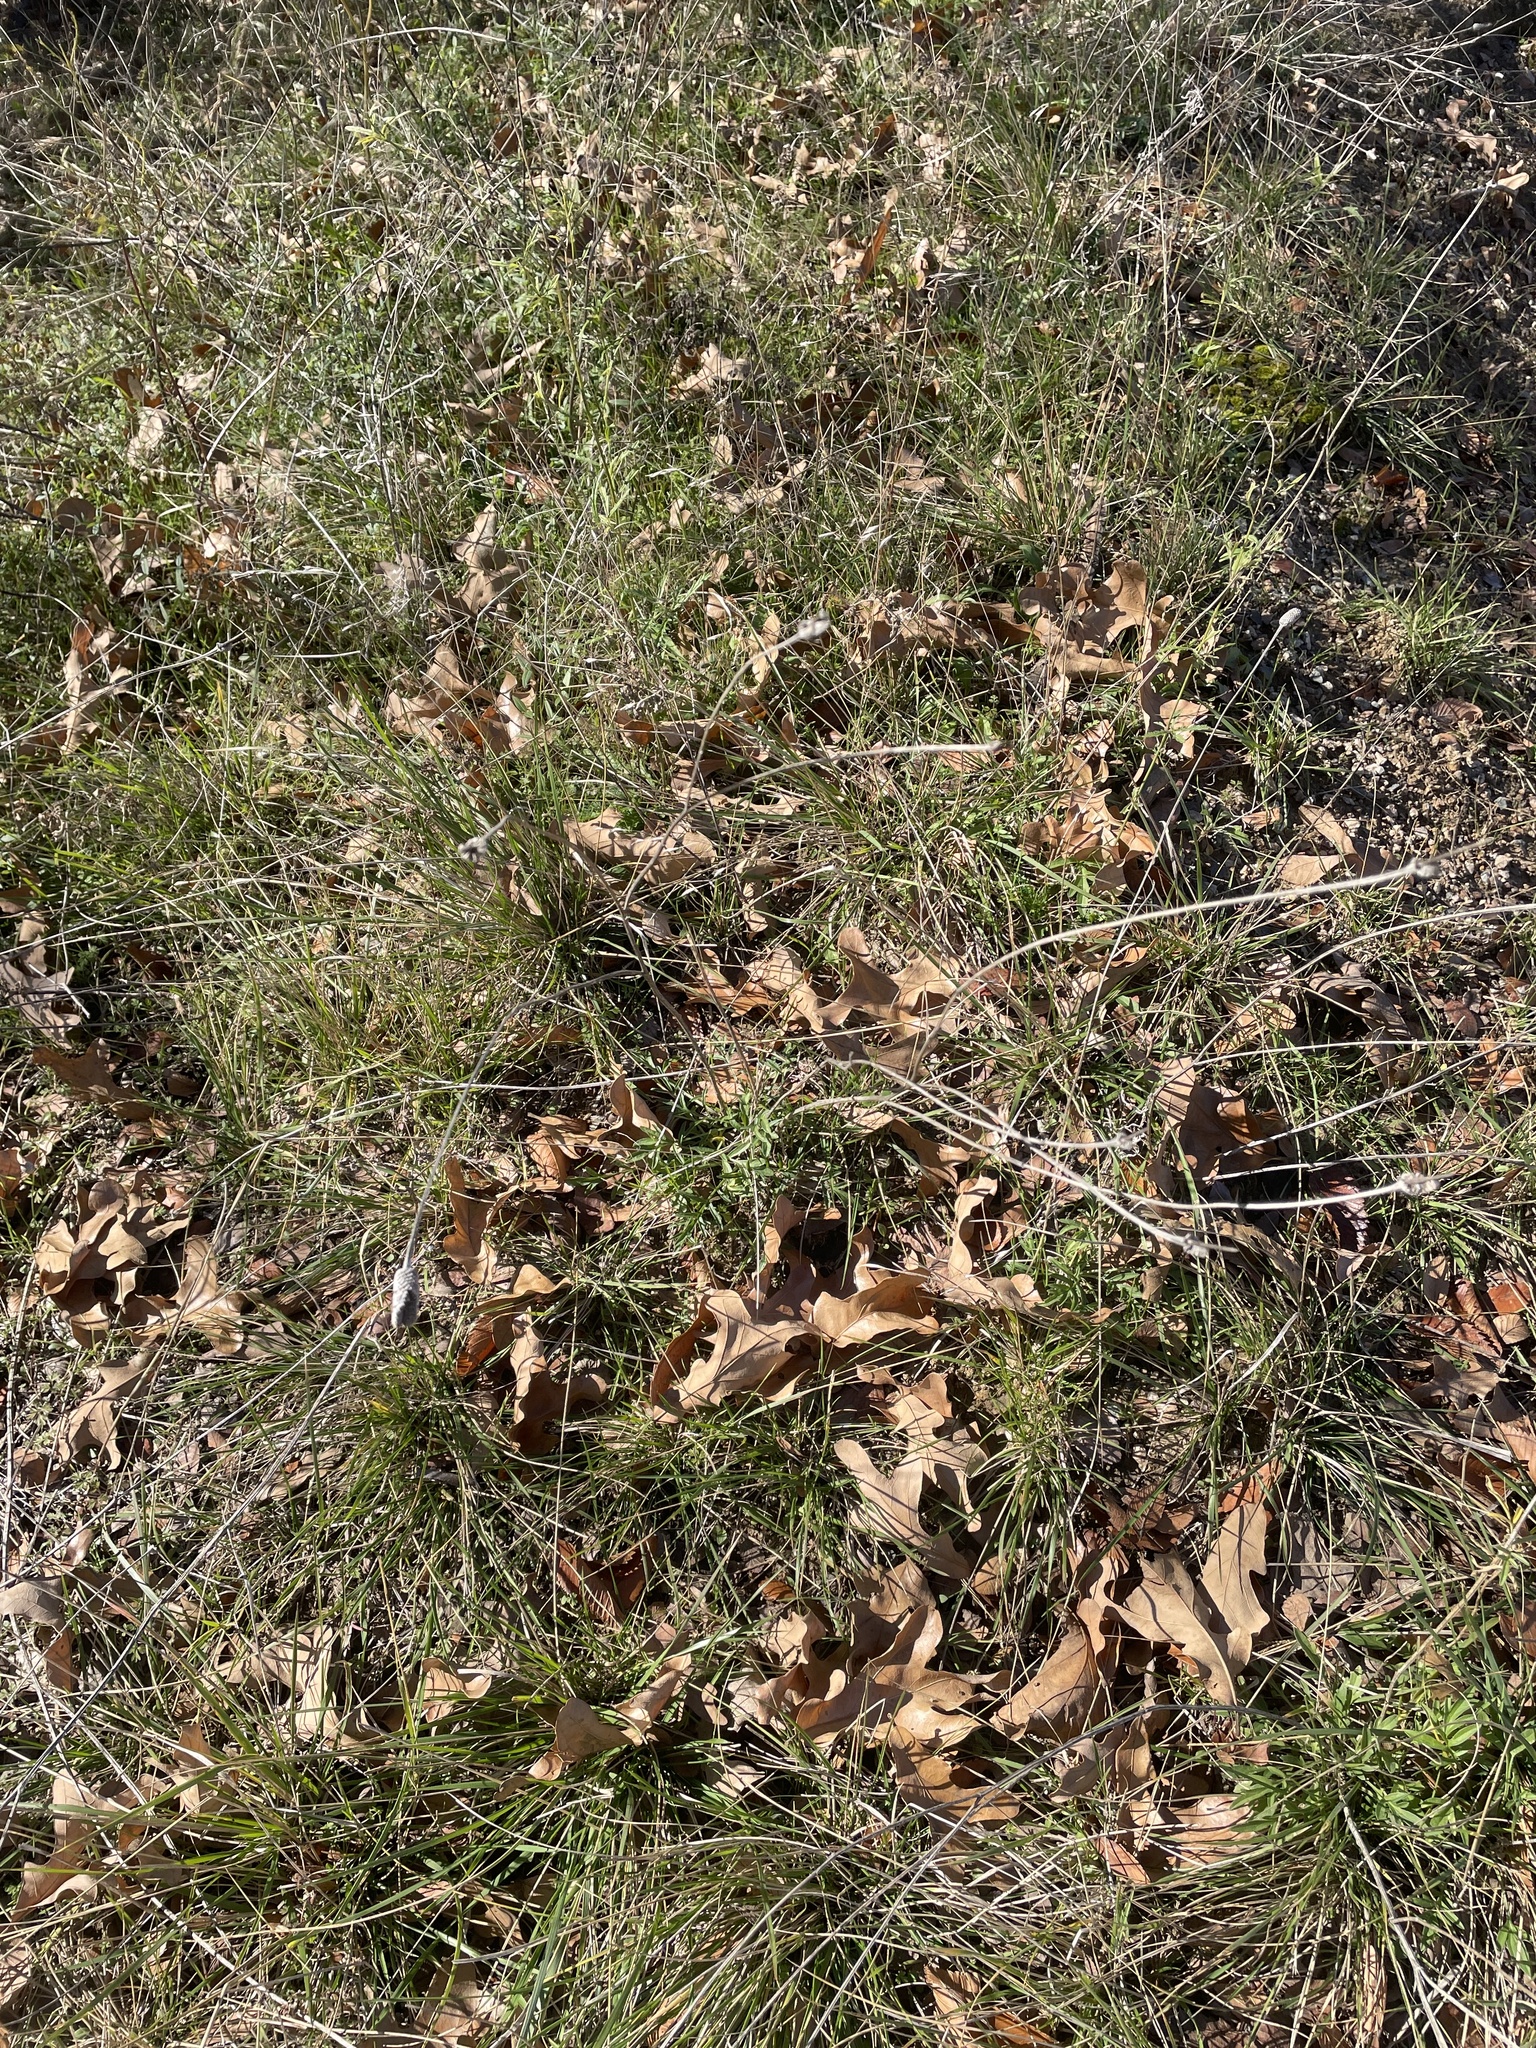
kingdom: Plantae
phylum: Tracheophyta
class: Magnoliopsida
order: Asterales
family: Asteraceae
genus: Ratibida
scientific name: Ratibida columnifera
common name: Prairie coneflower
